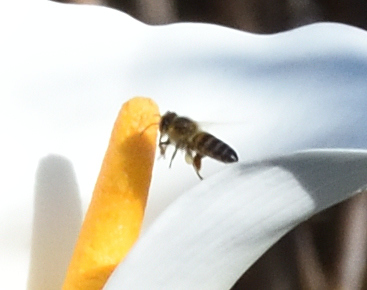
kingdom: Animalia
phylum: Arthropoda
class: Insecta
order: Hymenoptera
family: Apidae
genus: Apis
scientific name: Apis mellifera
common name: Honey bee
